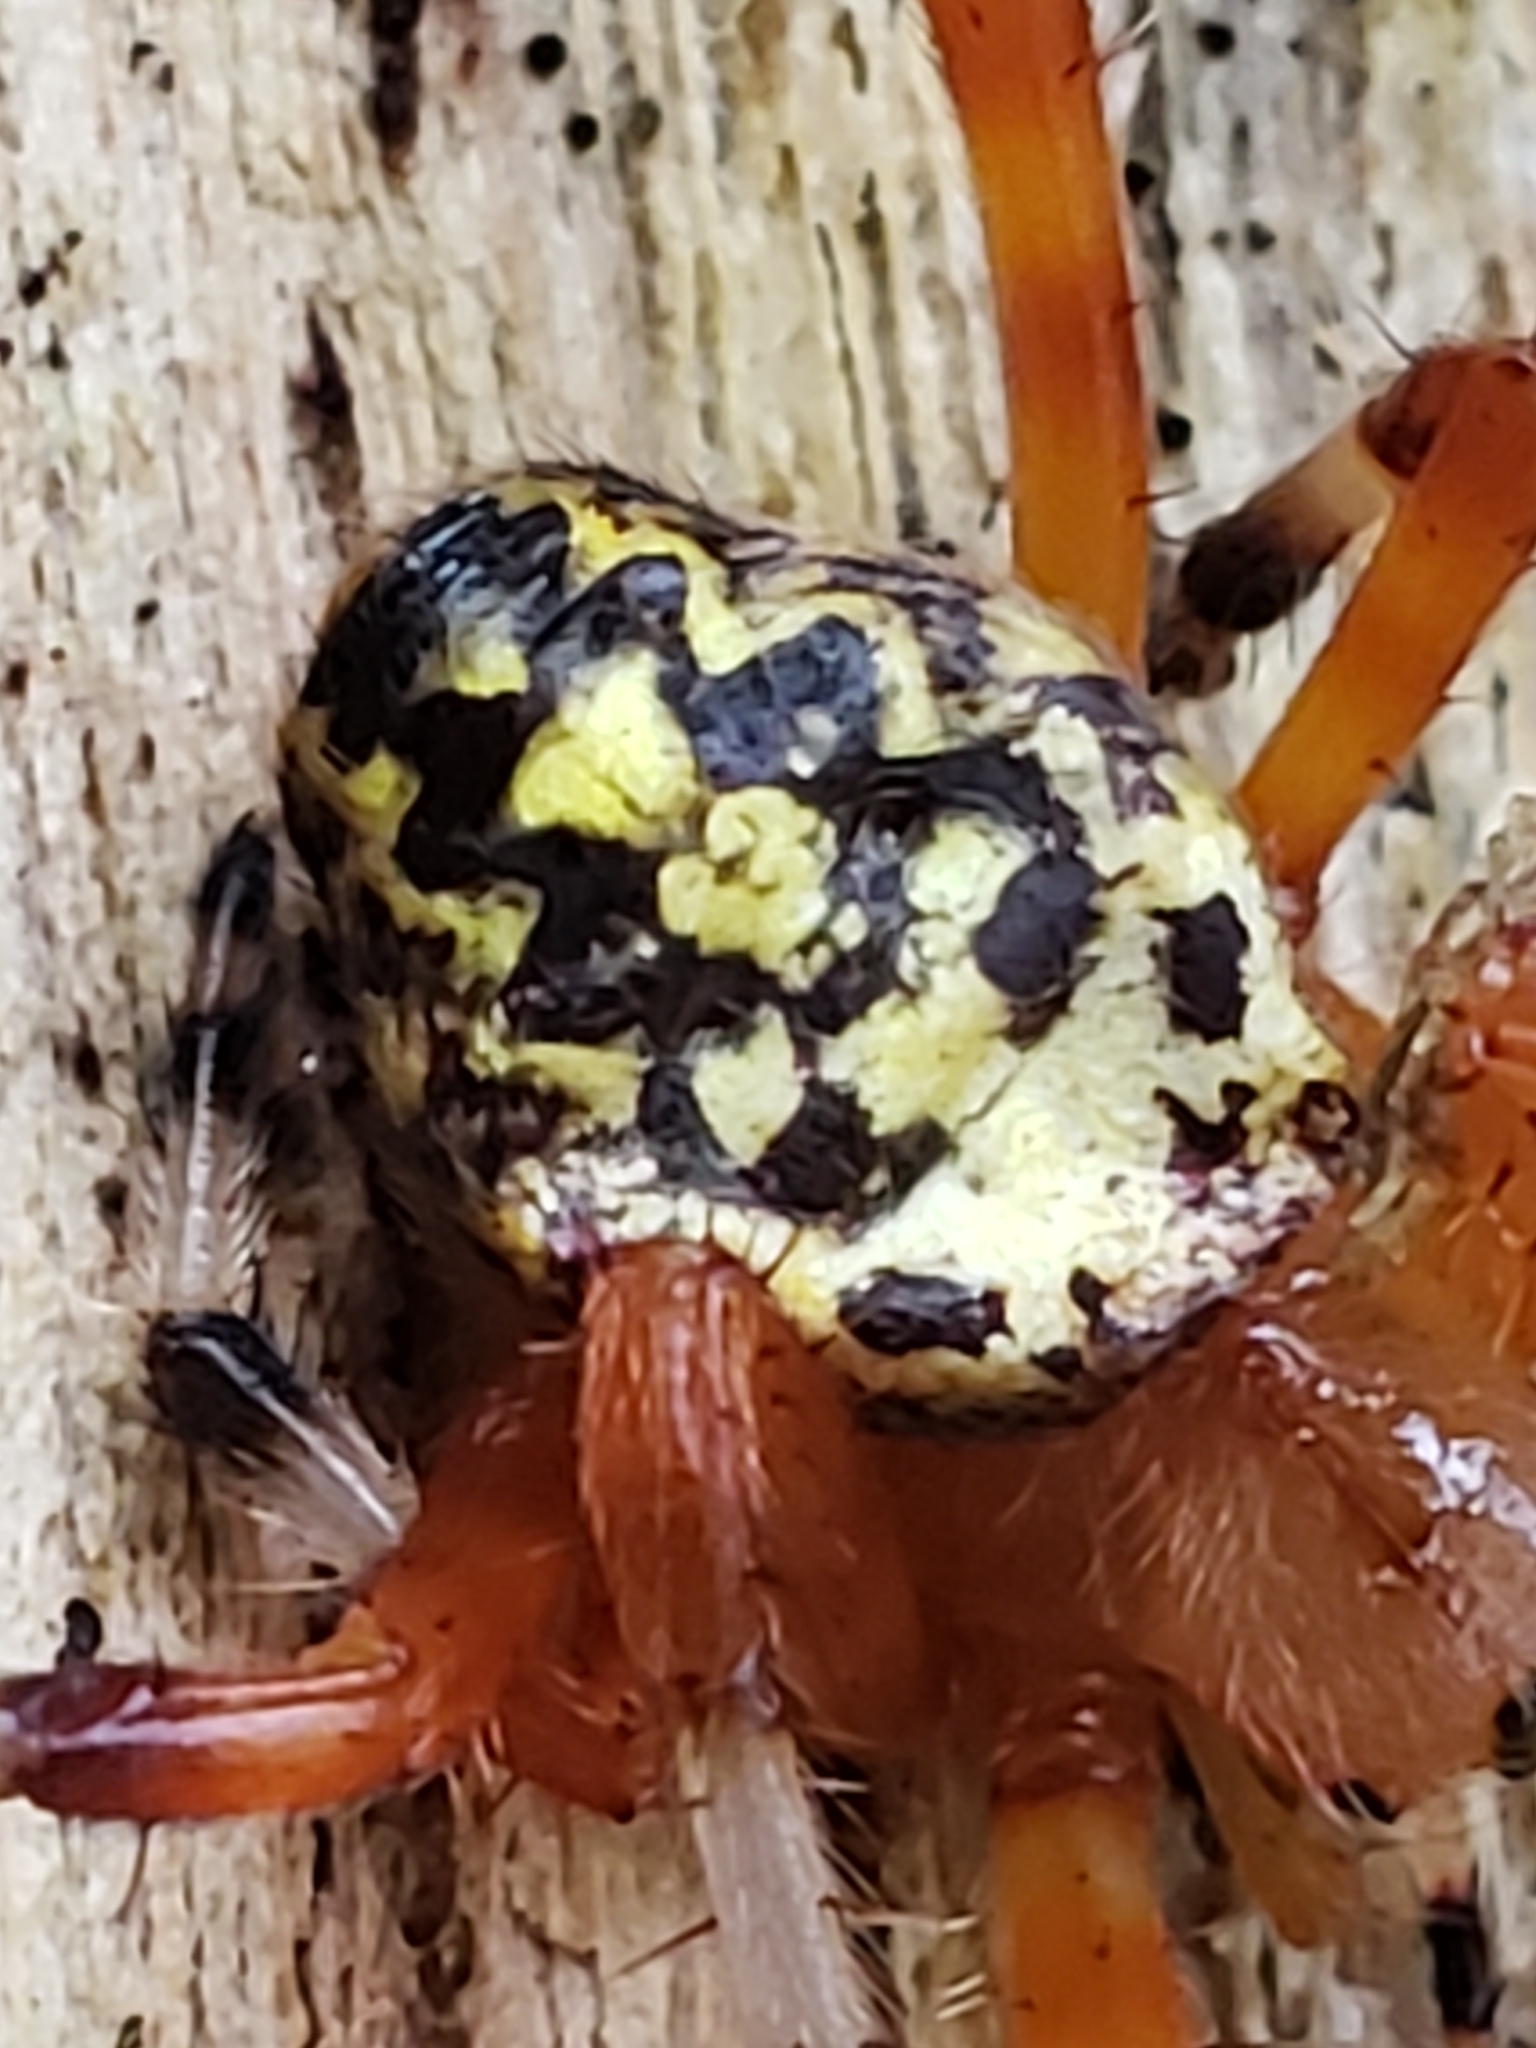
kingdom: Animalia
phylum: Arthropoda
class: Arachnida
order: Araneae
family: Araneidae
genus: Araneus
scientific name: Araneus marmoreus
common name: Marbled orbweaver
